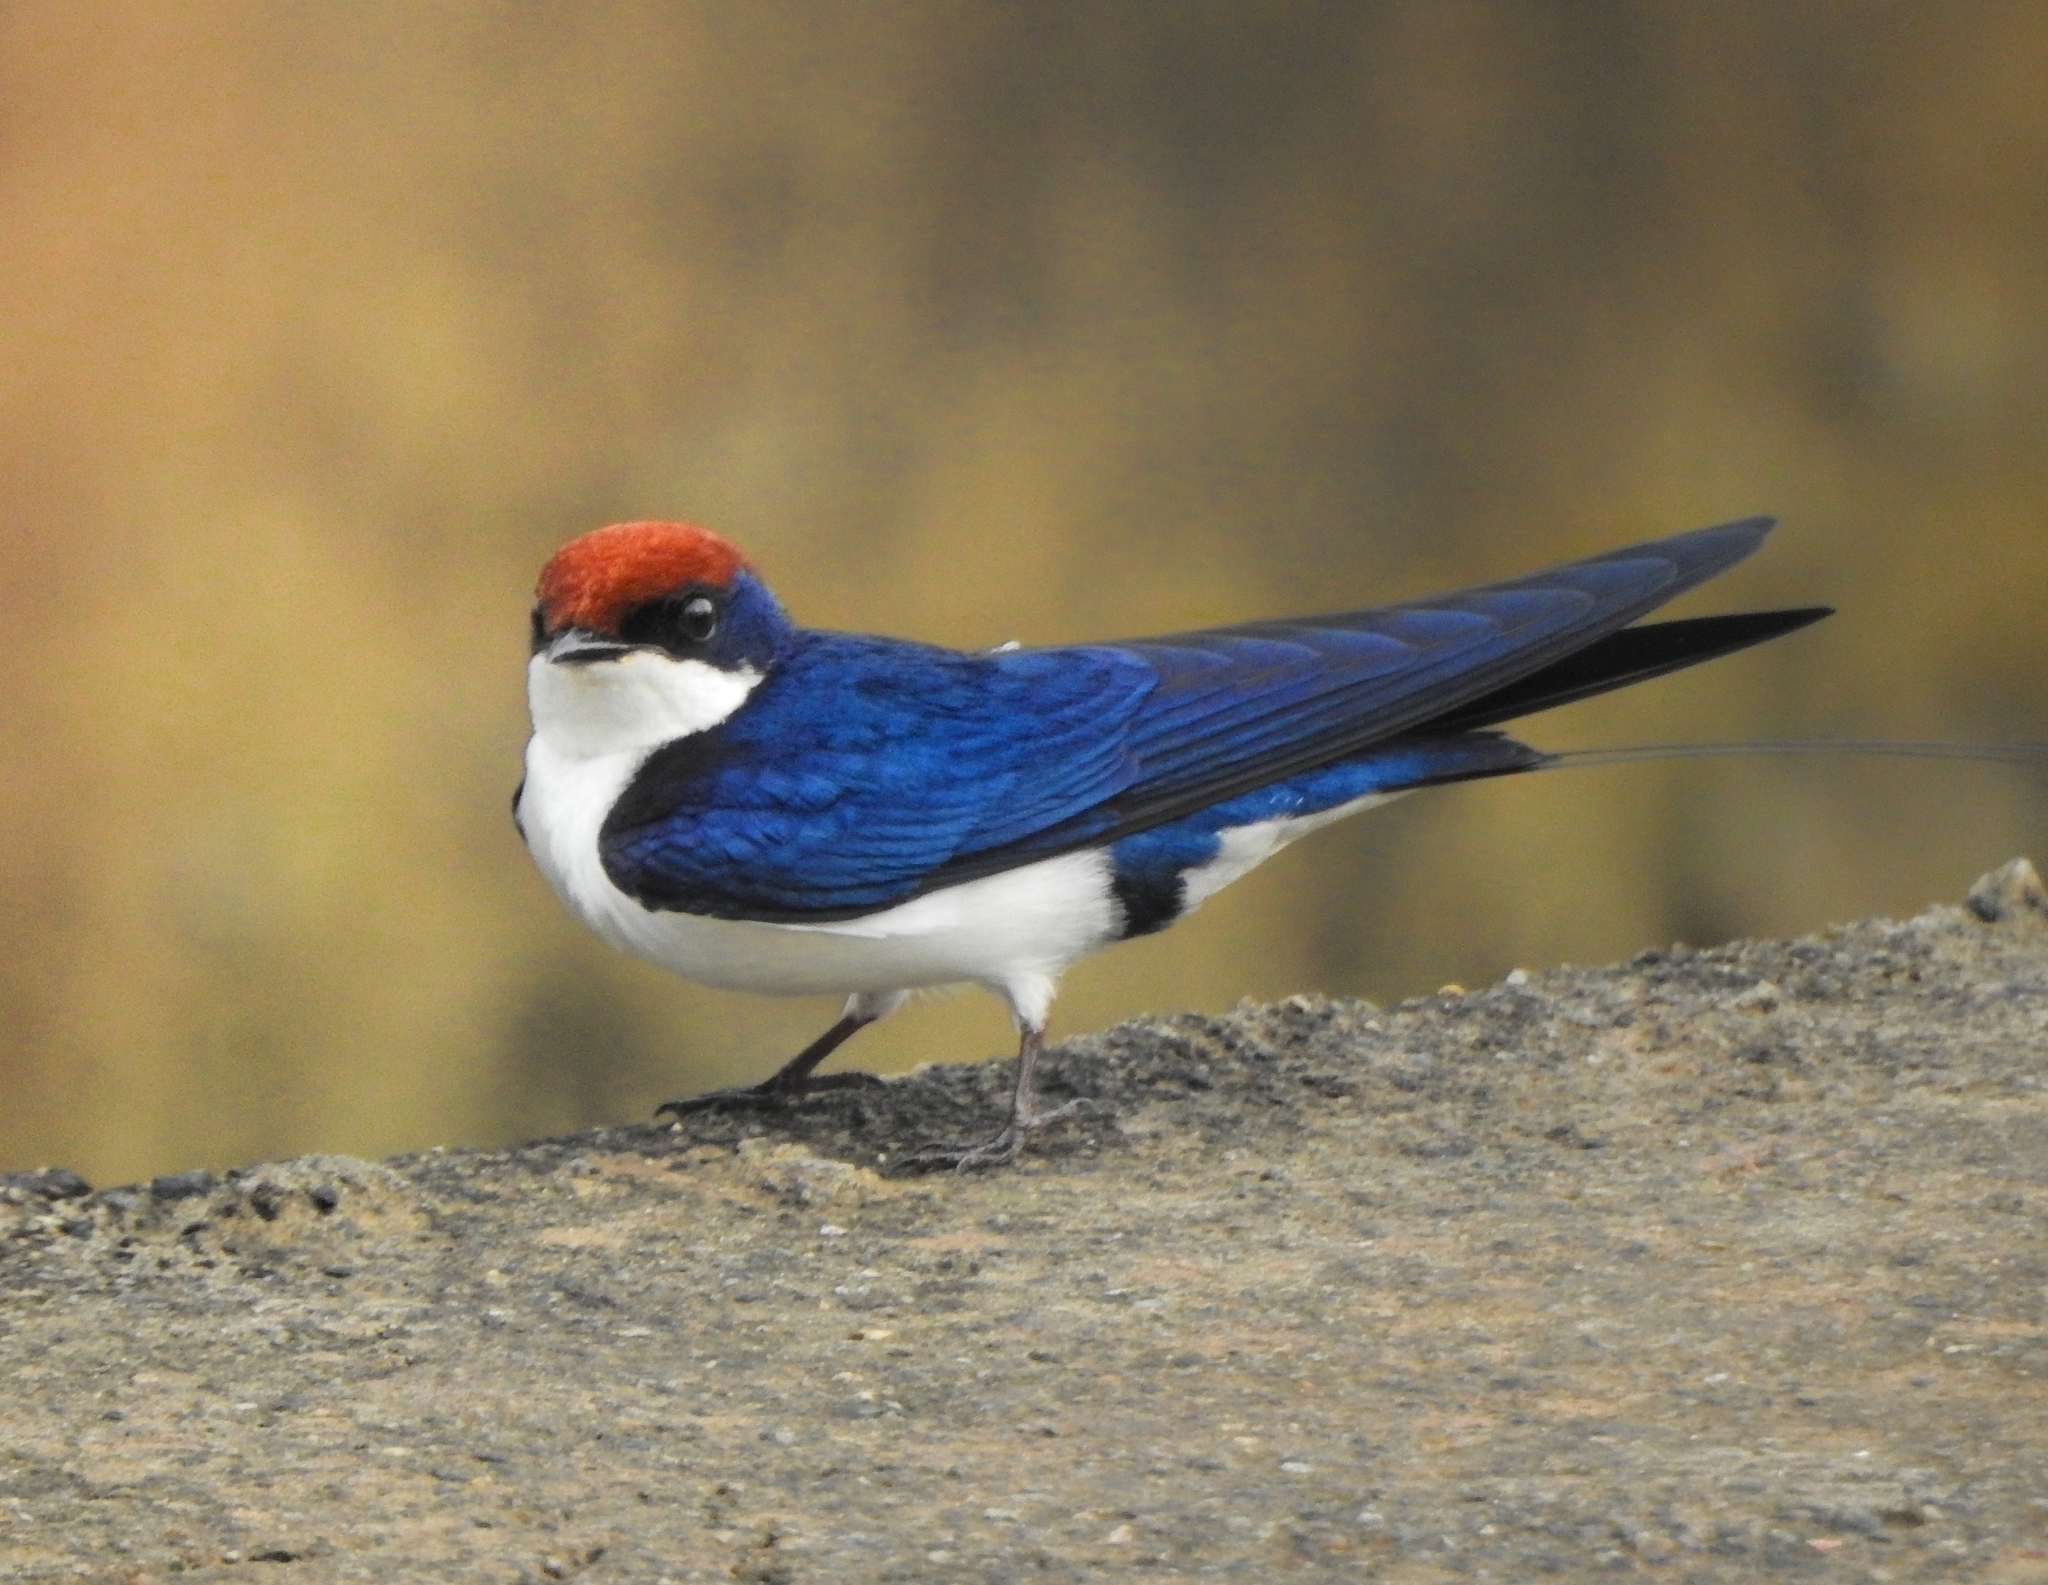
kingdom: Animalia
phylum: Chordata
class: Aves
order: Passeriformes
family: Hirundinidae
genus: Hirundo
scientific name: Hirundo smithii
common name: Wire-tailed swallow
